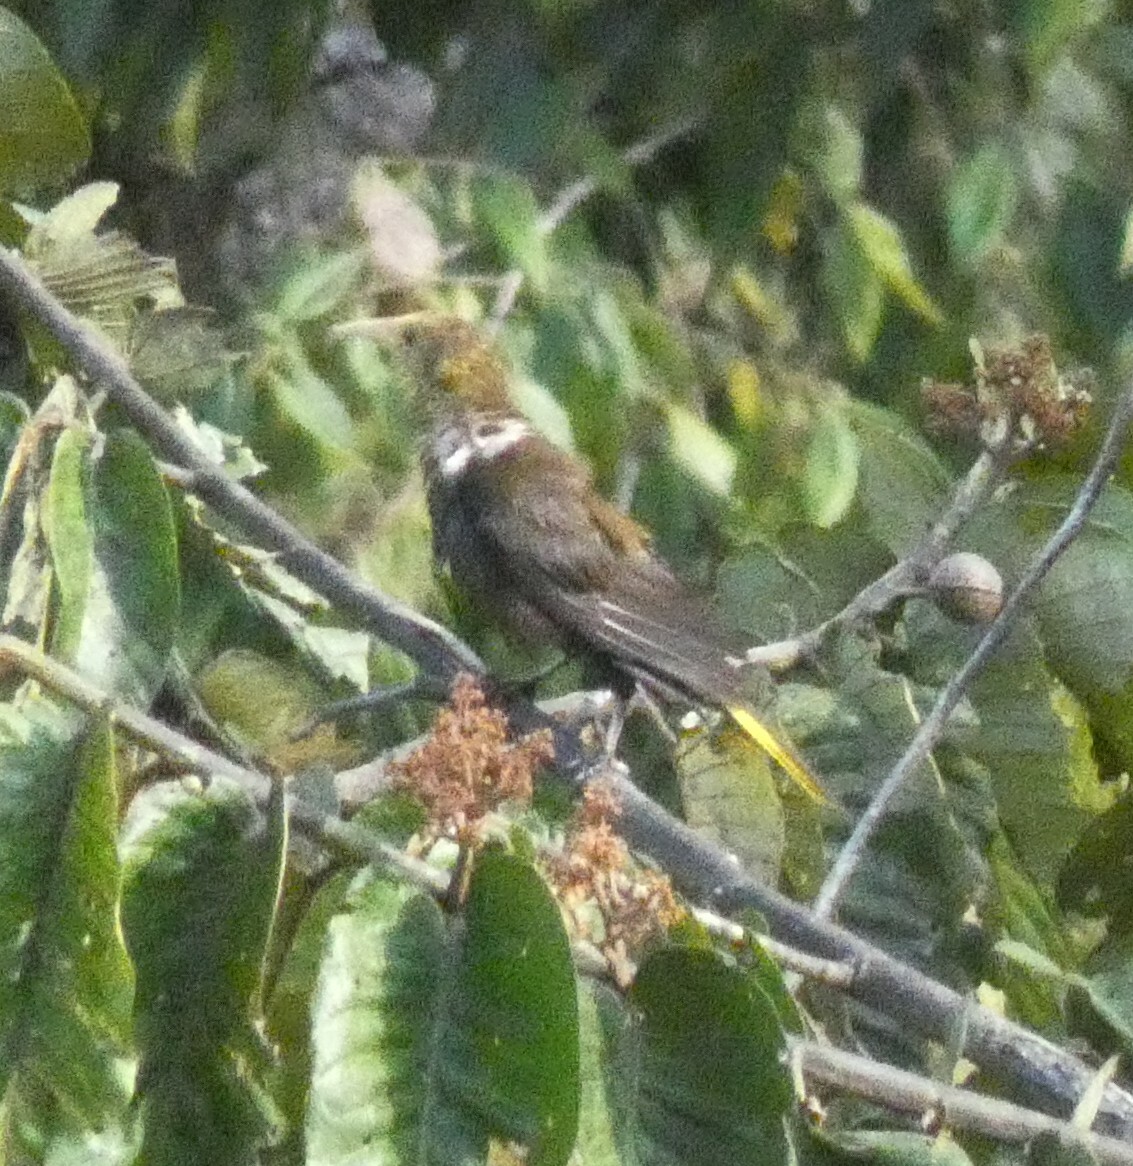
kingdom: Animalia
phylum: Chordata
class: Aves
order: Passeriformes
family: Icteridae
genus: Psarocolius
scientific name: Psarocolius angustifrons
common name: Russet-backed oropendola
